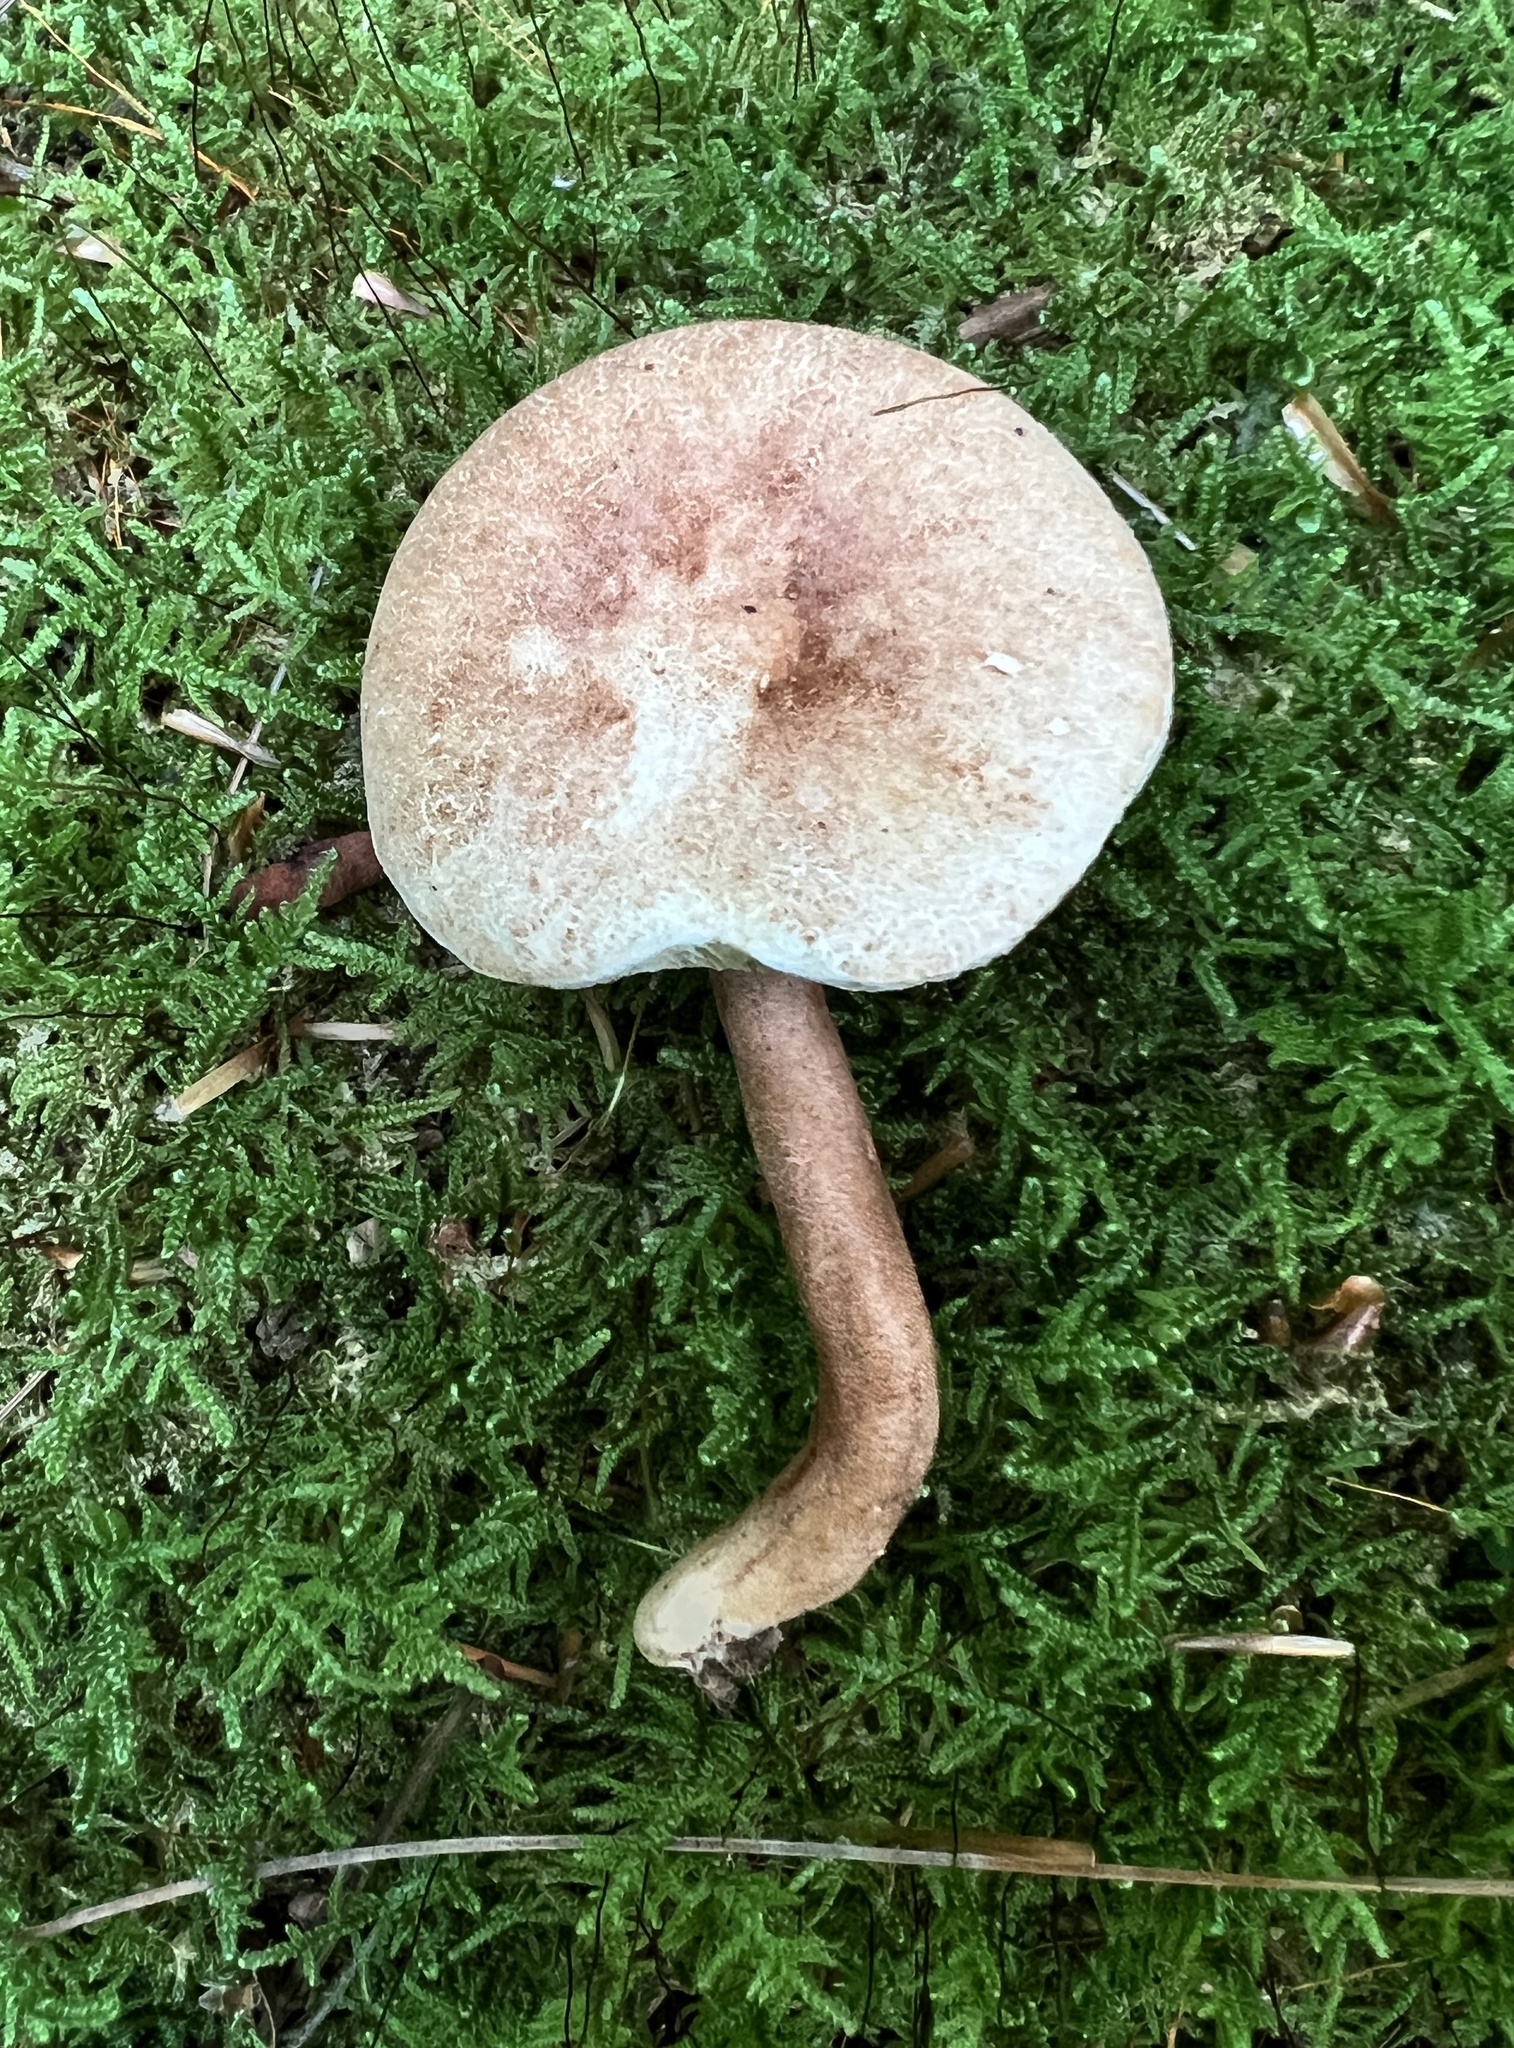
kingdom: Fungi
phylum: Basidiomycota
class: Agaricomycetes
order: Boletales
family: Gyroporaceae
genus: Gyroporus
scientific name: Gyroporus purpurinus
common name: Red gyroporus
